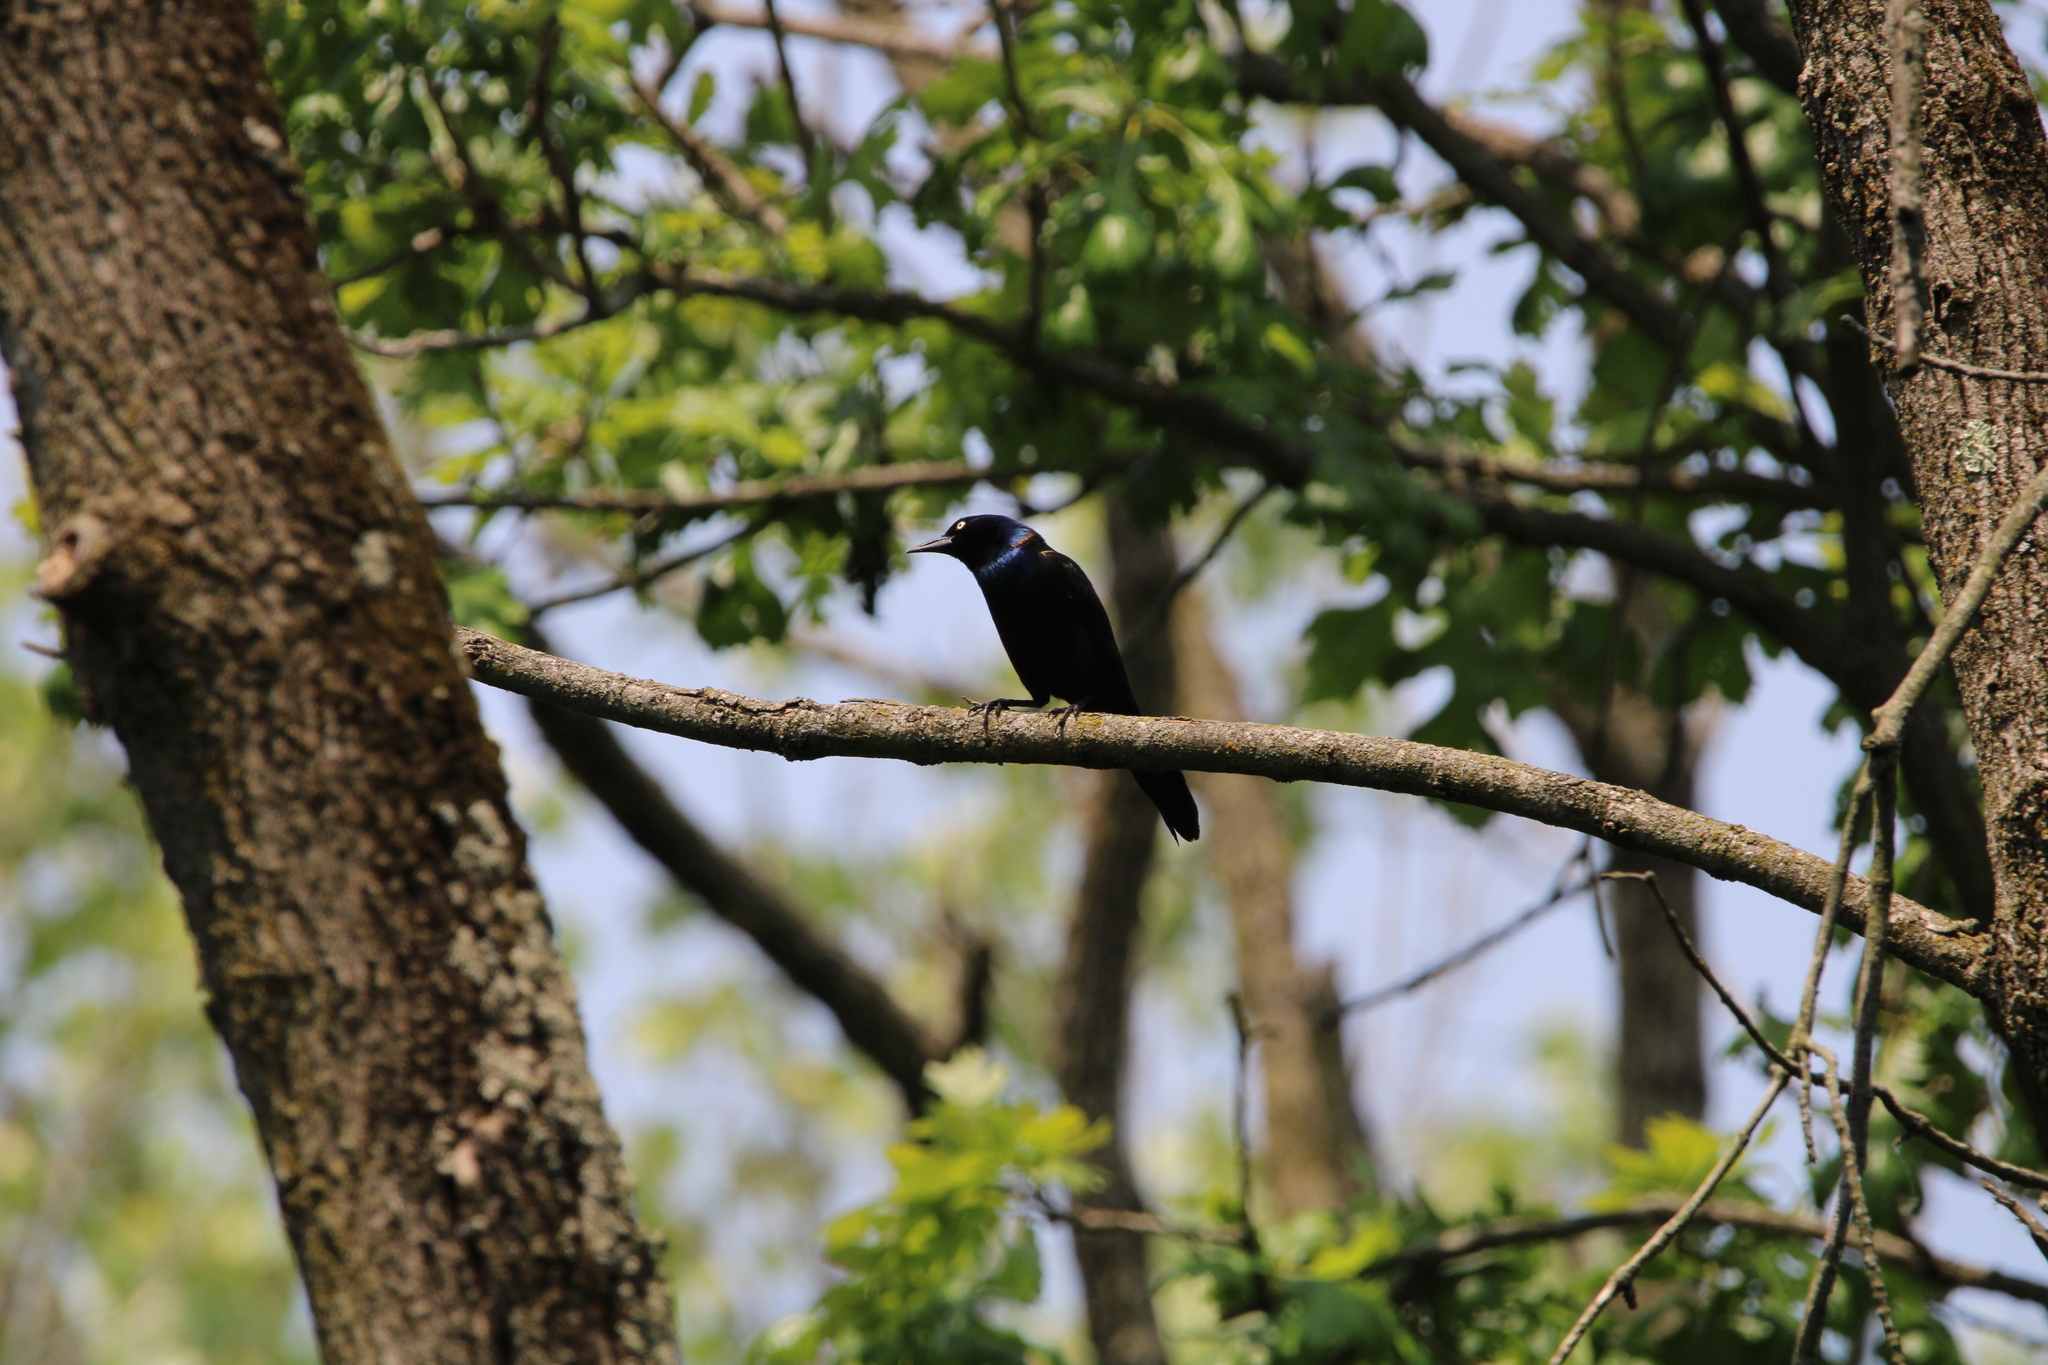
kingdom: Animalia
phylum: Chordata
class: Aves
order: Passeriformes
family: Icteridae
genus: Quiscalus
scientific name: Quiscalus quiscula
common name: Common grackle
